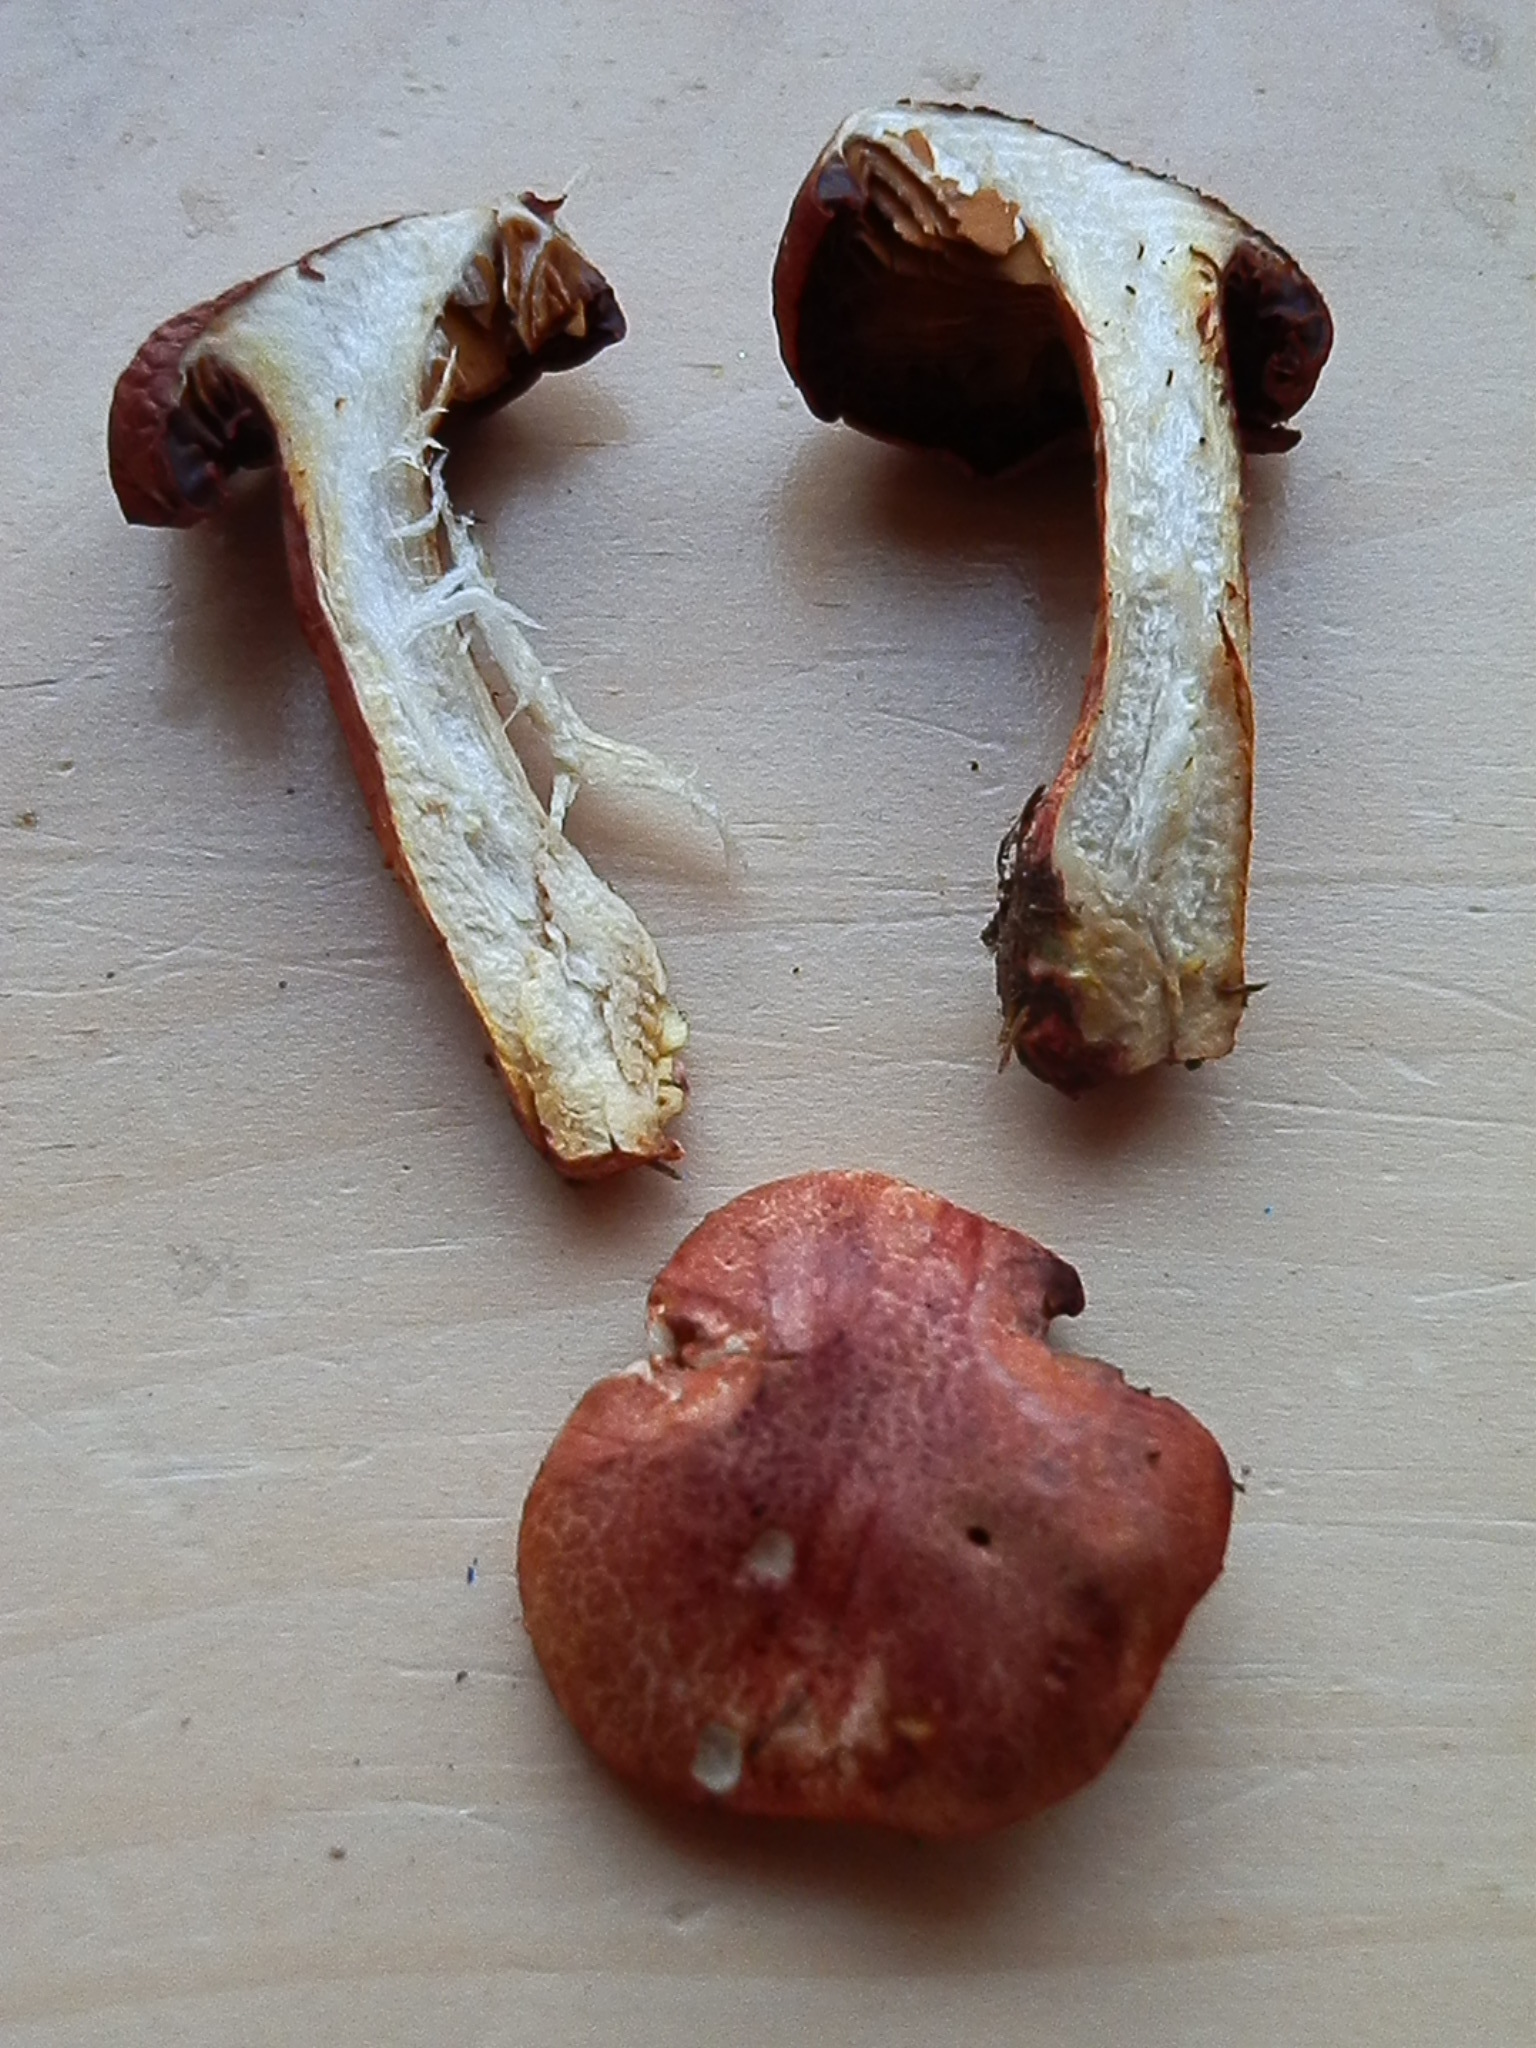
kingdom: Fungi
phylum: Basidiomycota
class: Agaricomycetes
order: Agaricales
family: Cortinariaceae
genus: Cortinarius
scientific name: Cortinarius bolaris
